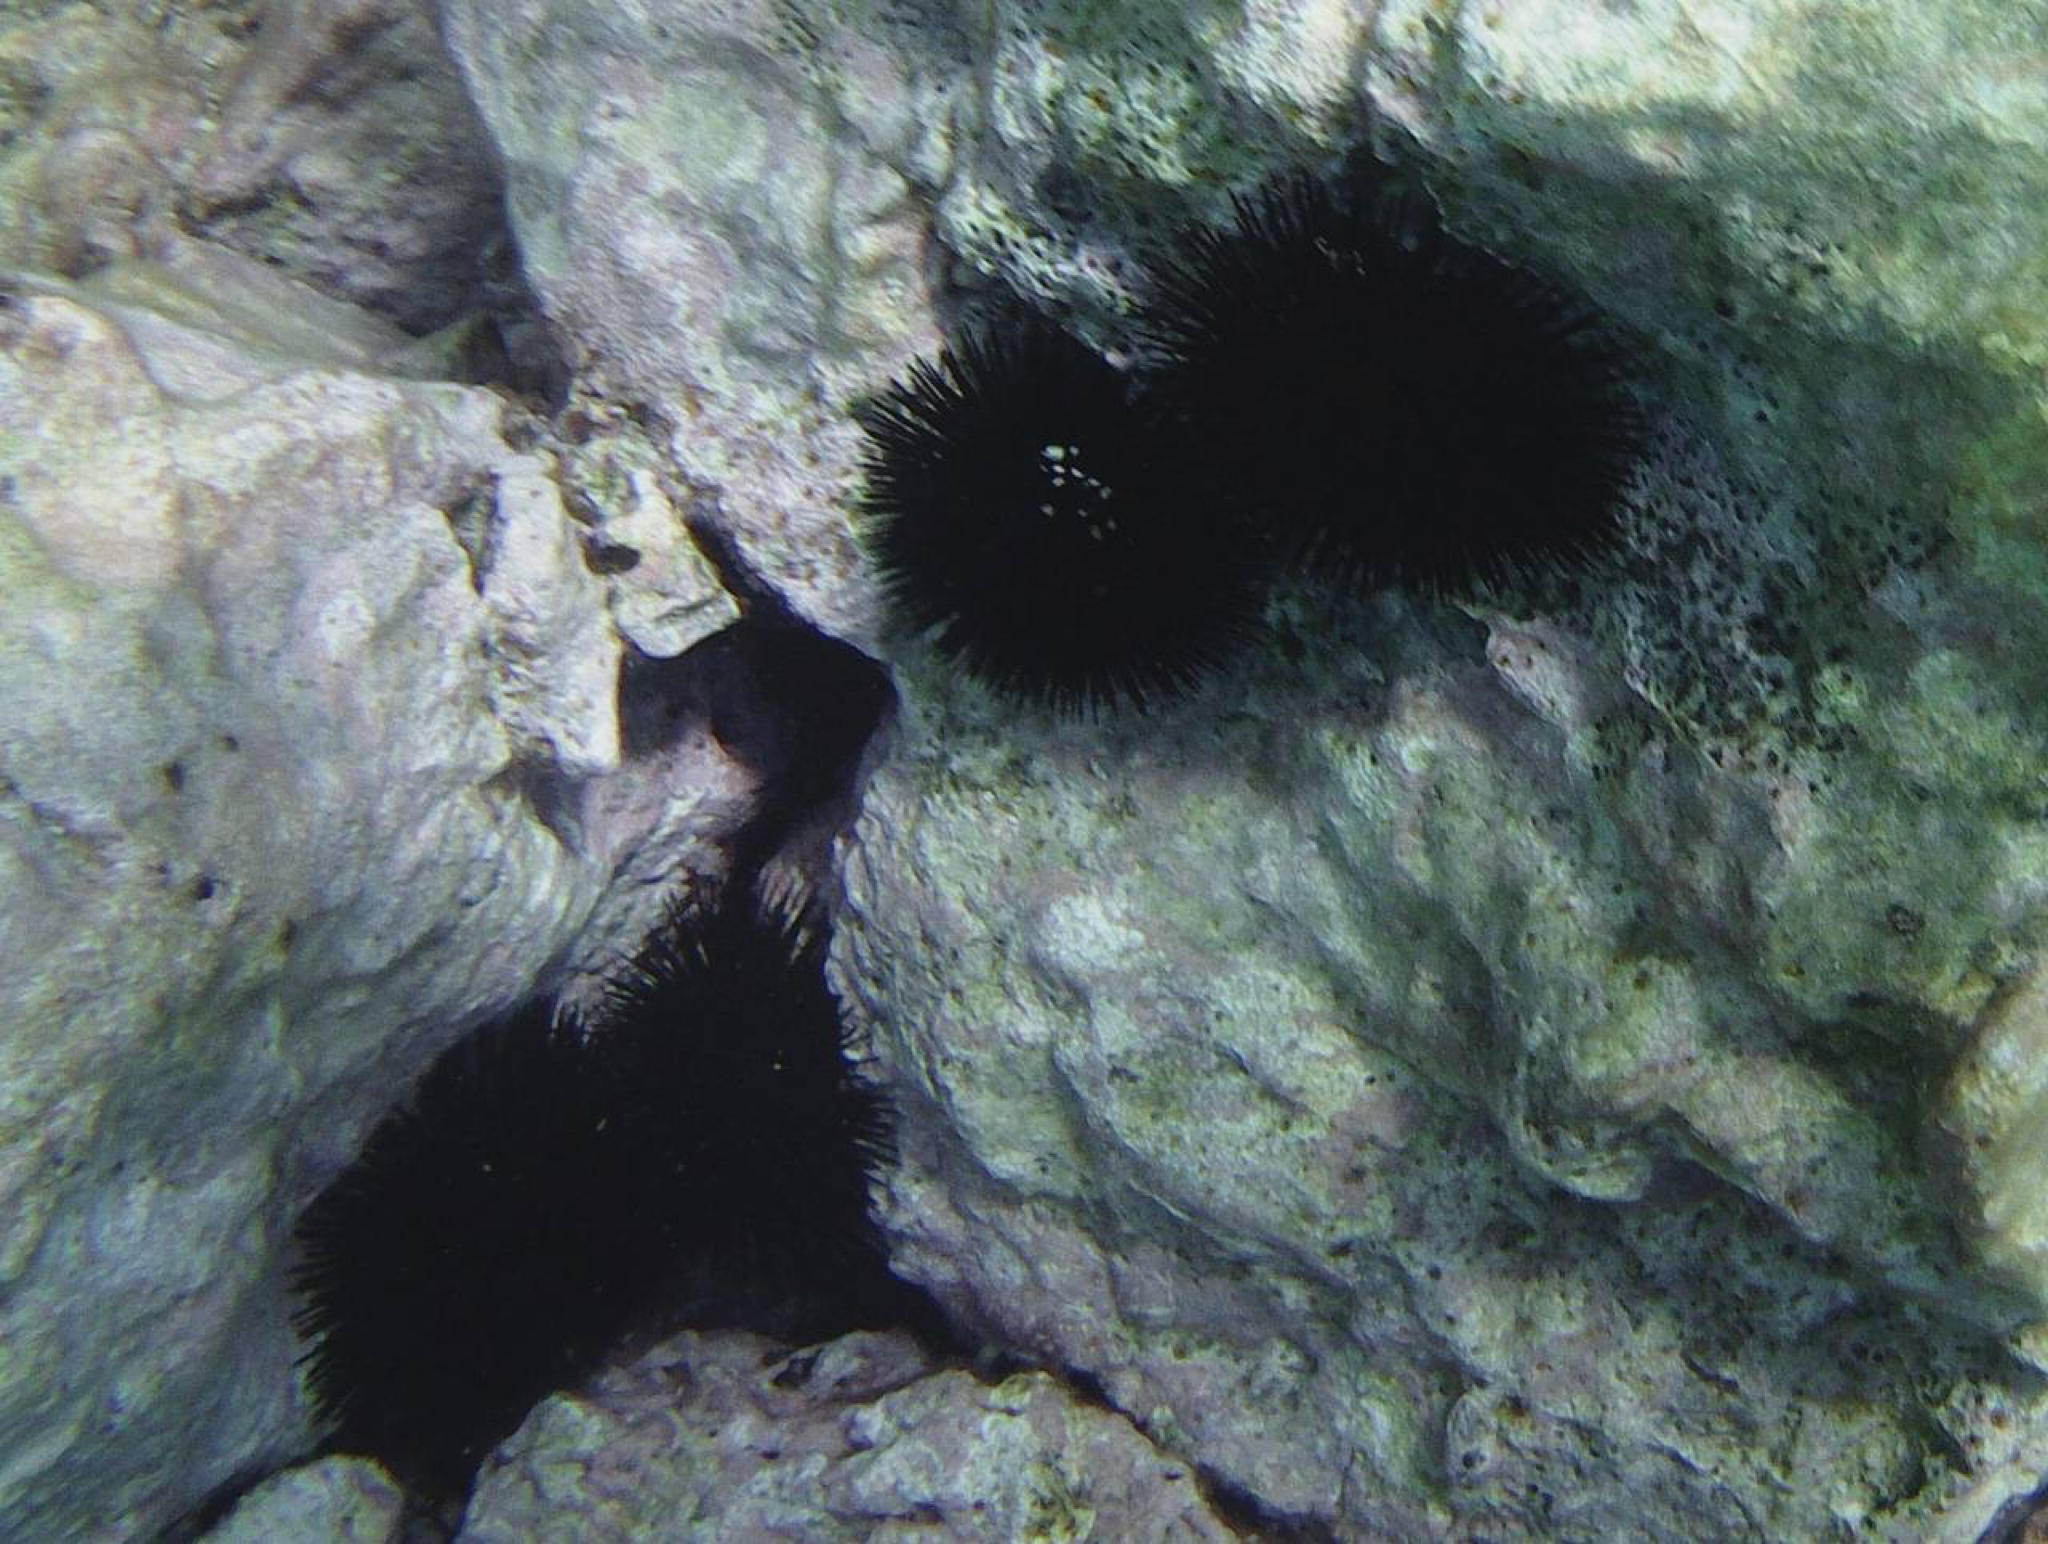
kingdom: Animalia
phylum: Echinodermata
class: Echinoidea
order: Arbacioida
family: Arbaciidae
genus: Arbacia
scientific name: Arbacia lixula
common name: Black sea urchin
